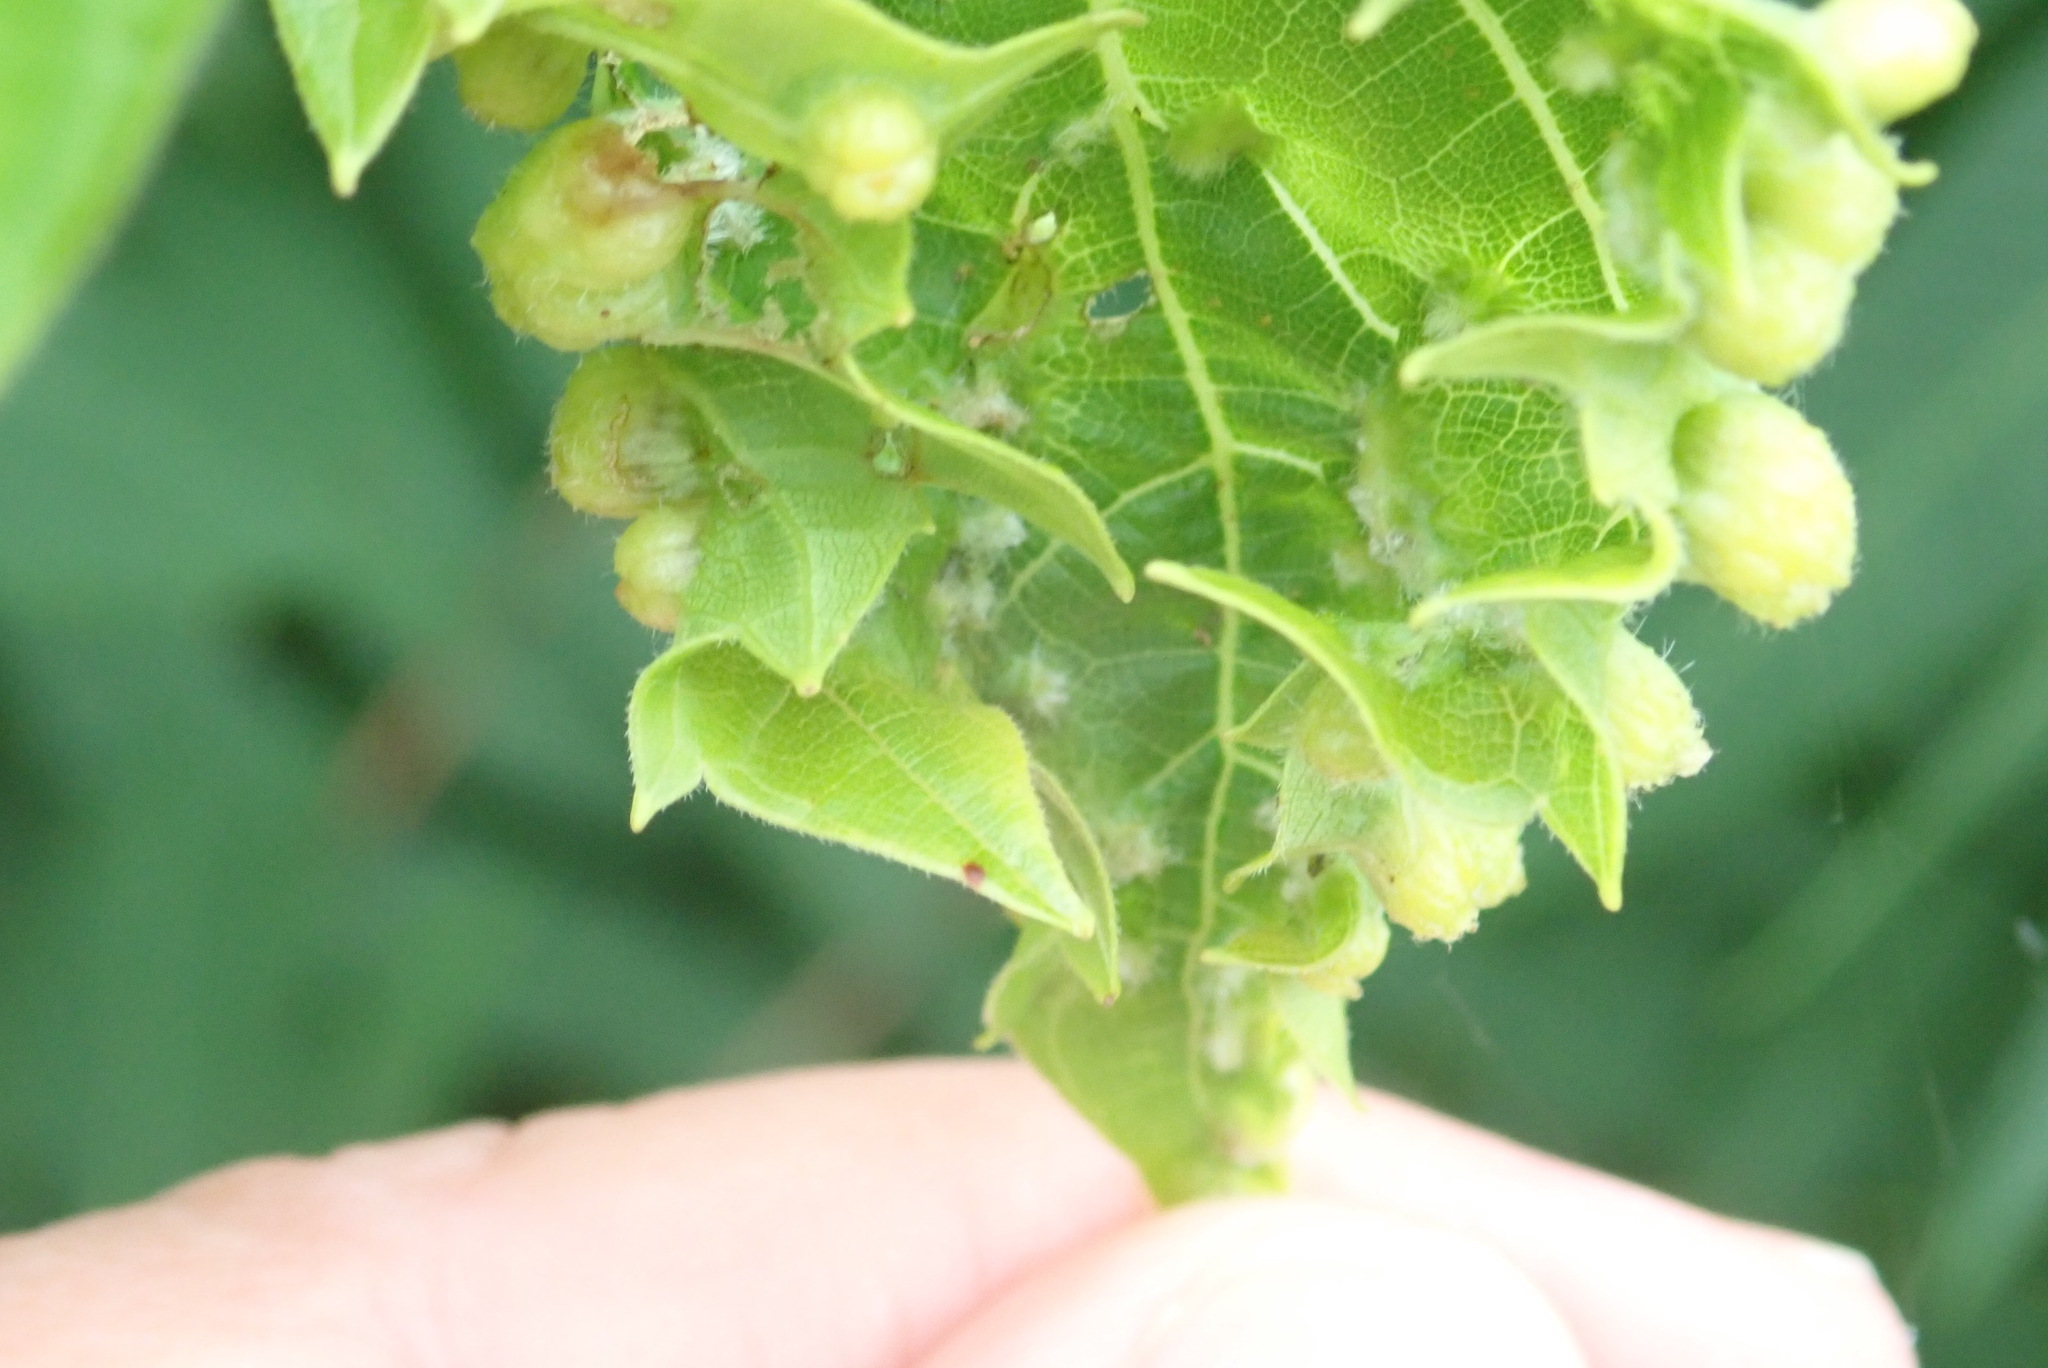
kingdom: Animalia
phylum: Arthropoda
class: Insecta
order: Hemiptera
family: Phylloxeridae
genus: Daktulosphaira
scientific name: Daktulosphaira vitifoliae
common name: Grape phylloxera
